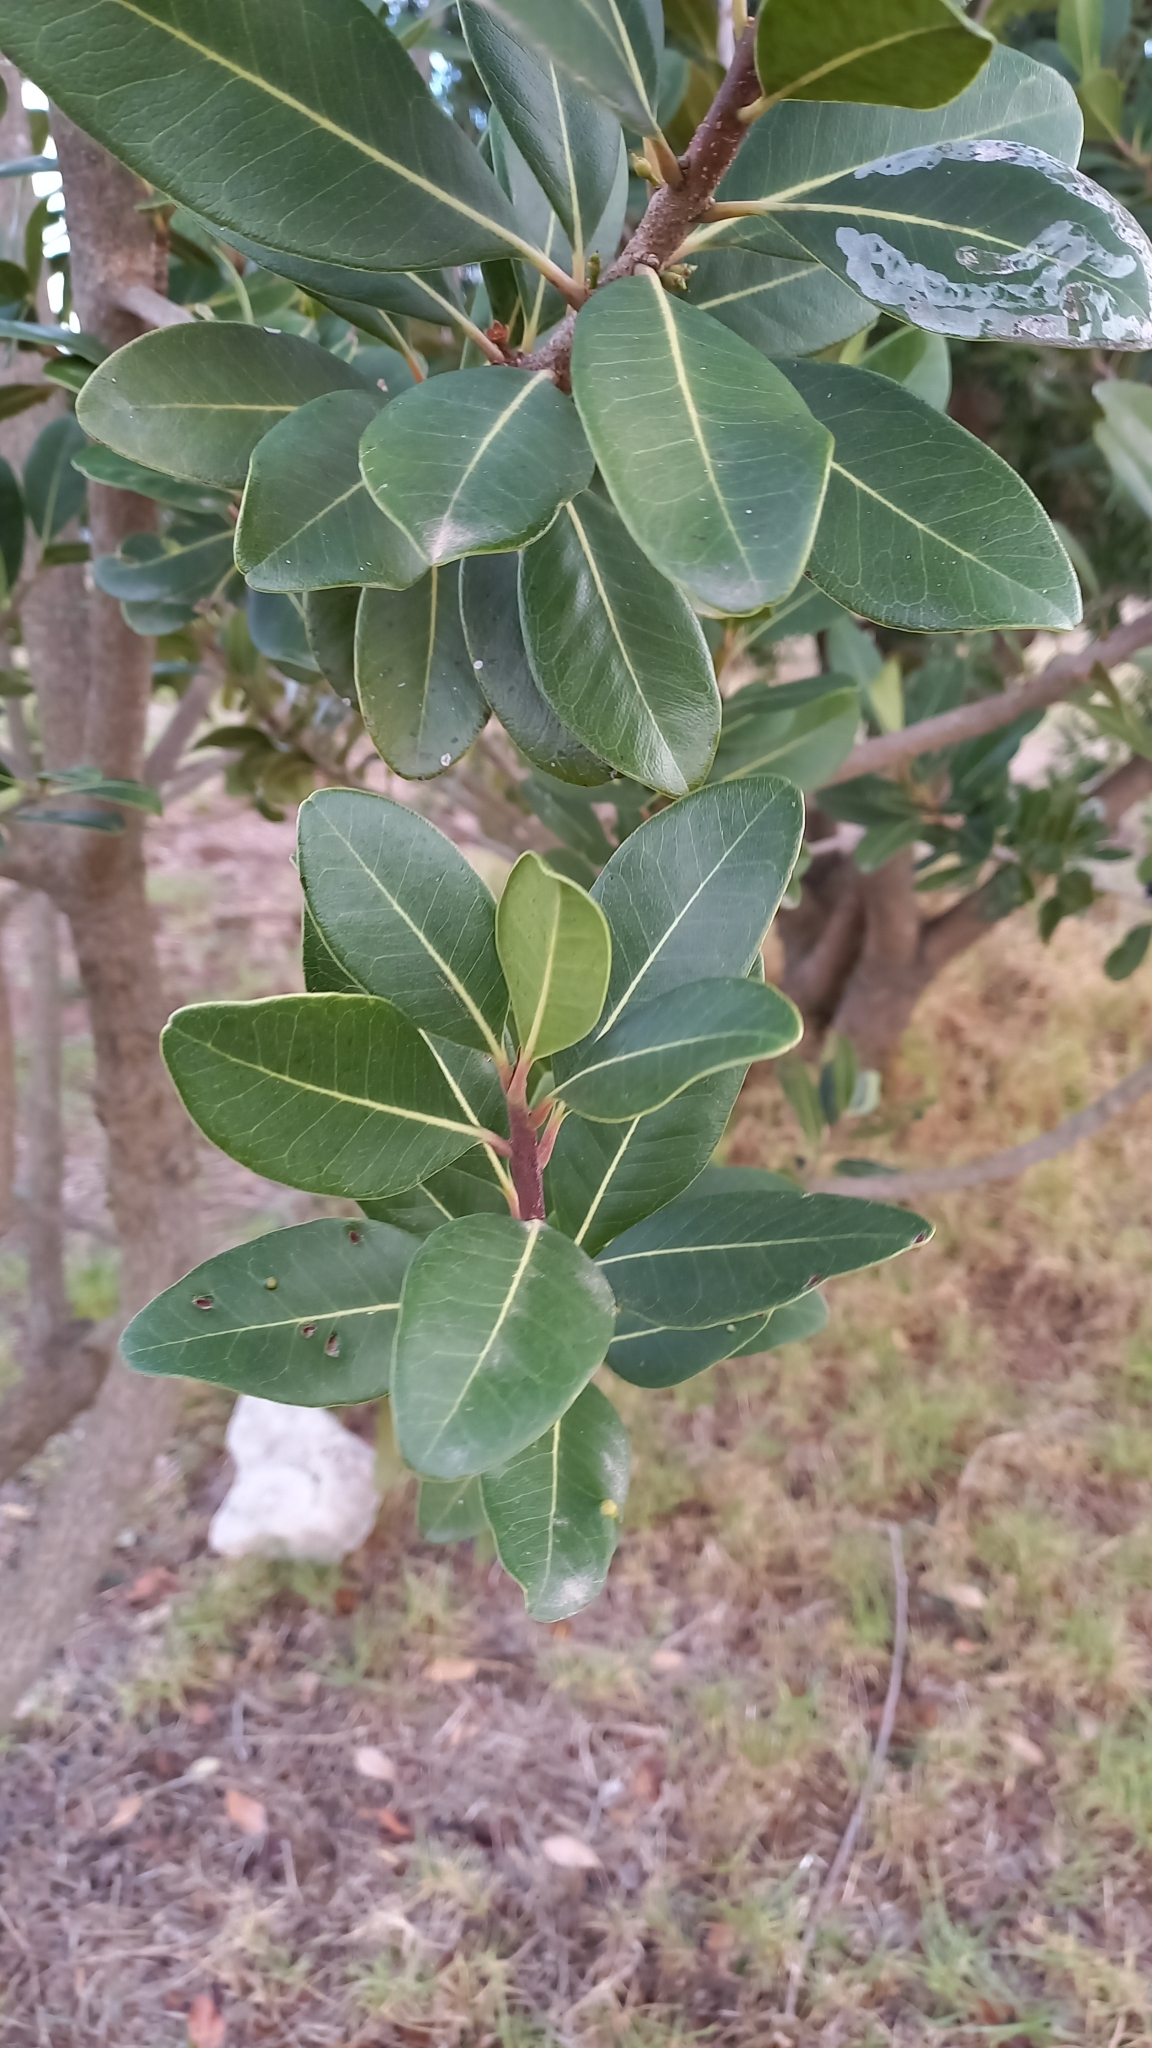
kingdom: Plantae
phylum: Tracheophyta
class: Magnoliopsida
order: Ericales
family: Sapotaceae
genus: Sideroxylon
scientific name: Sideroxylon inerme
